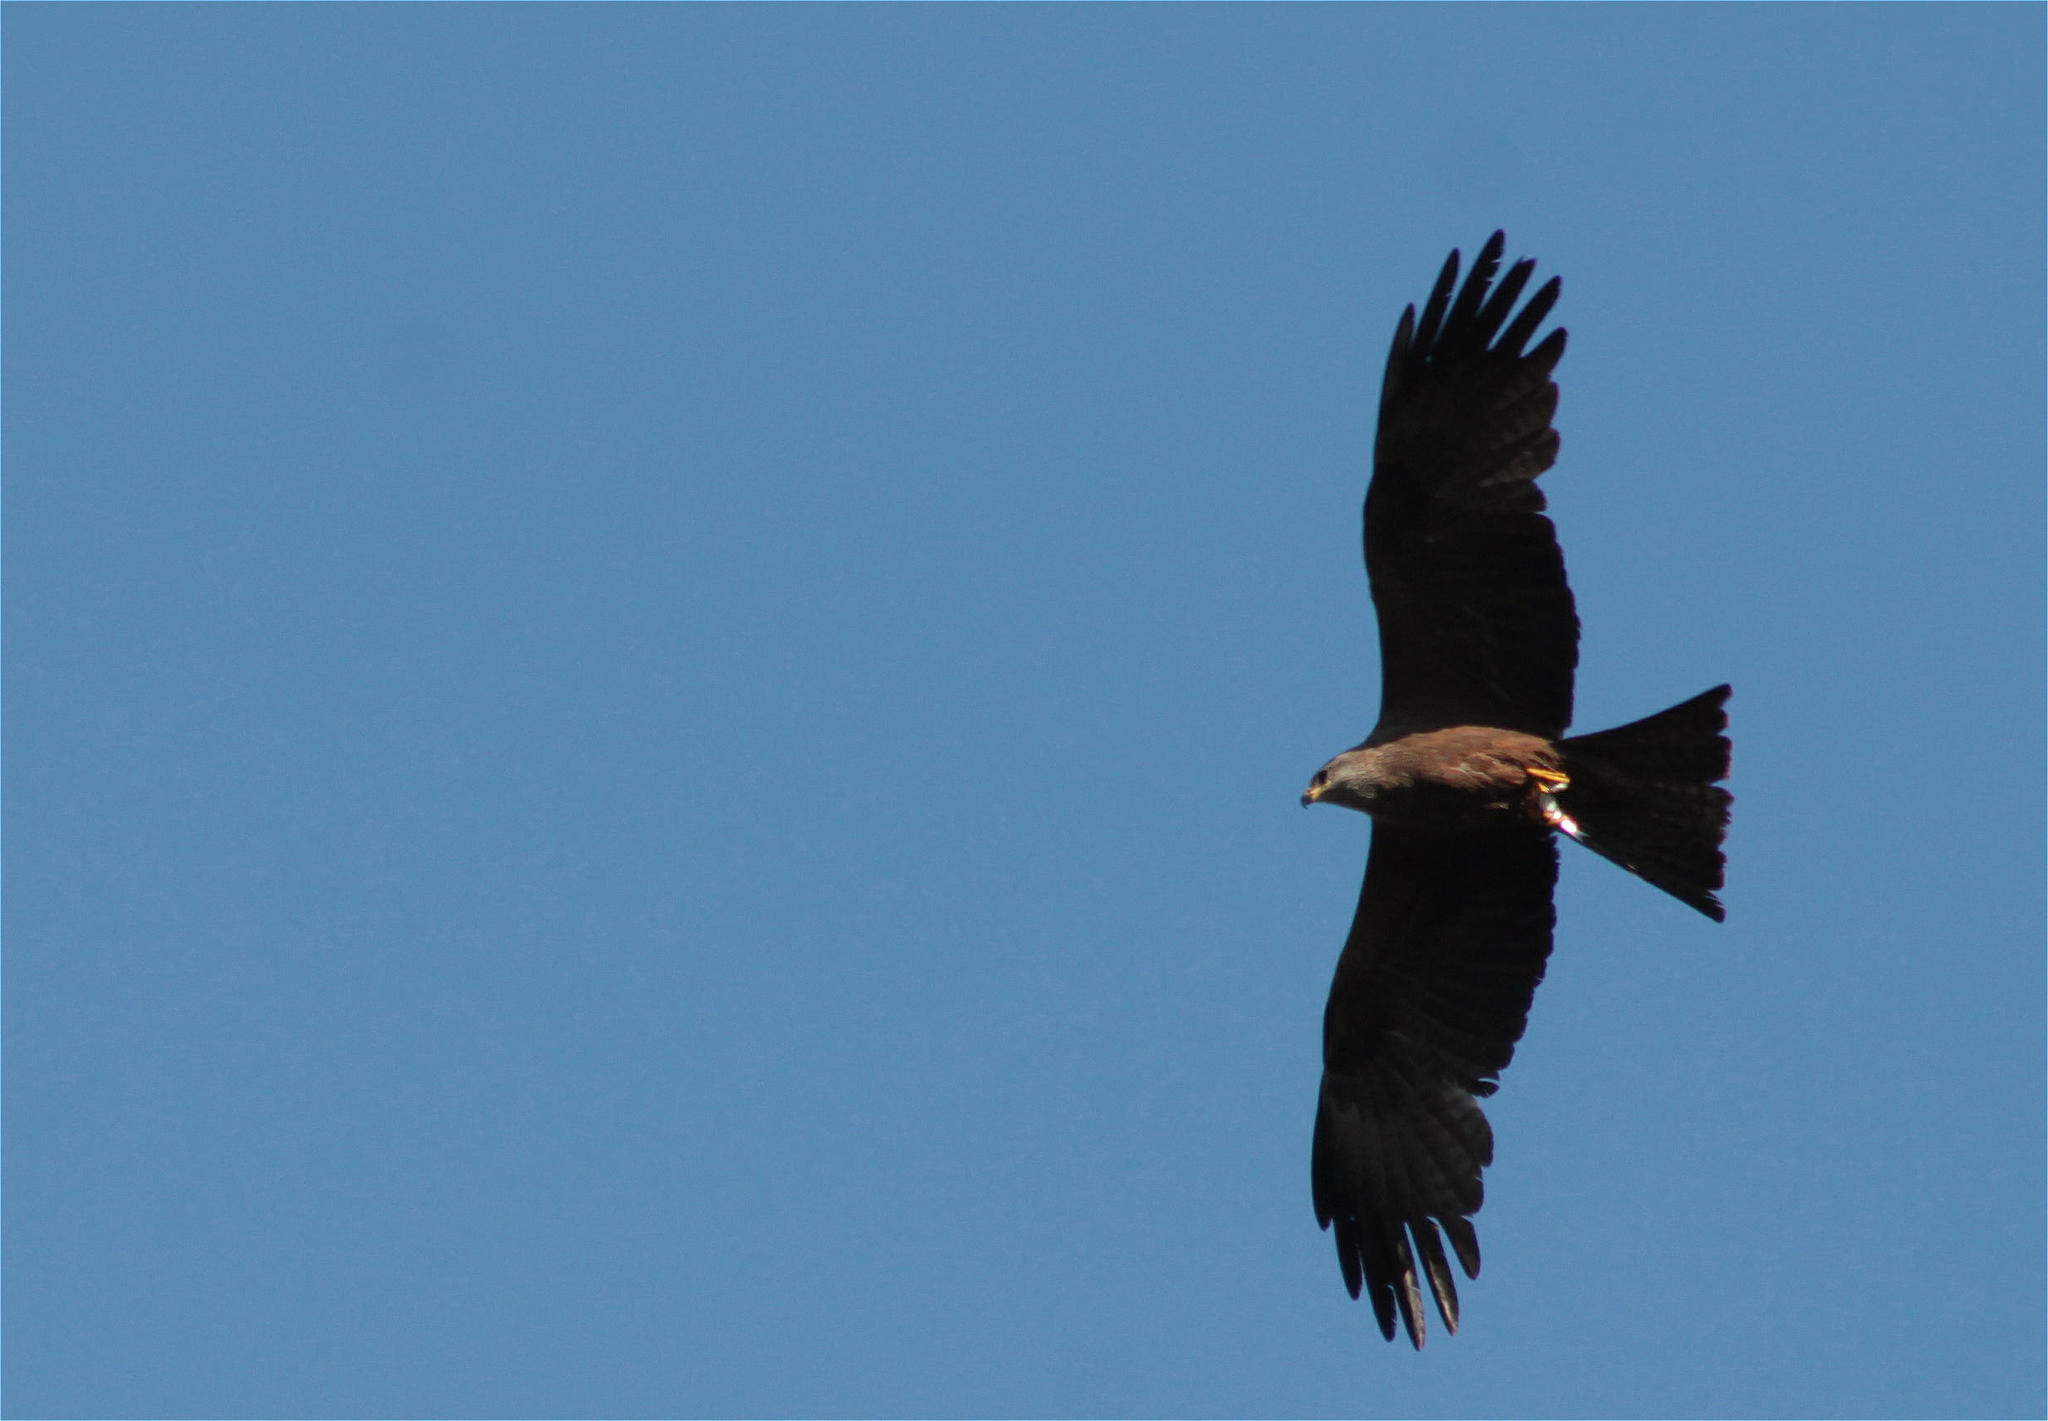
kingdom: Animalia
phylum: Chordata
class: Aves
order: Accipitriformes
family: Accipitridae
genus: Milvus
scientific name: Milvus migrans
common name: Black kite
